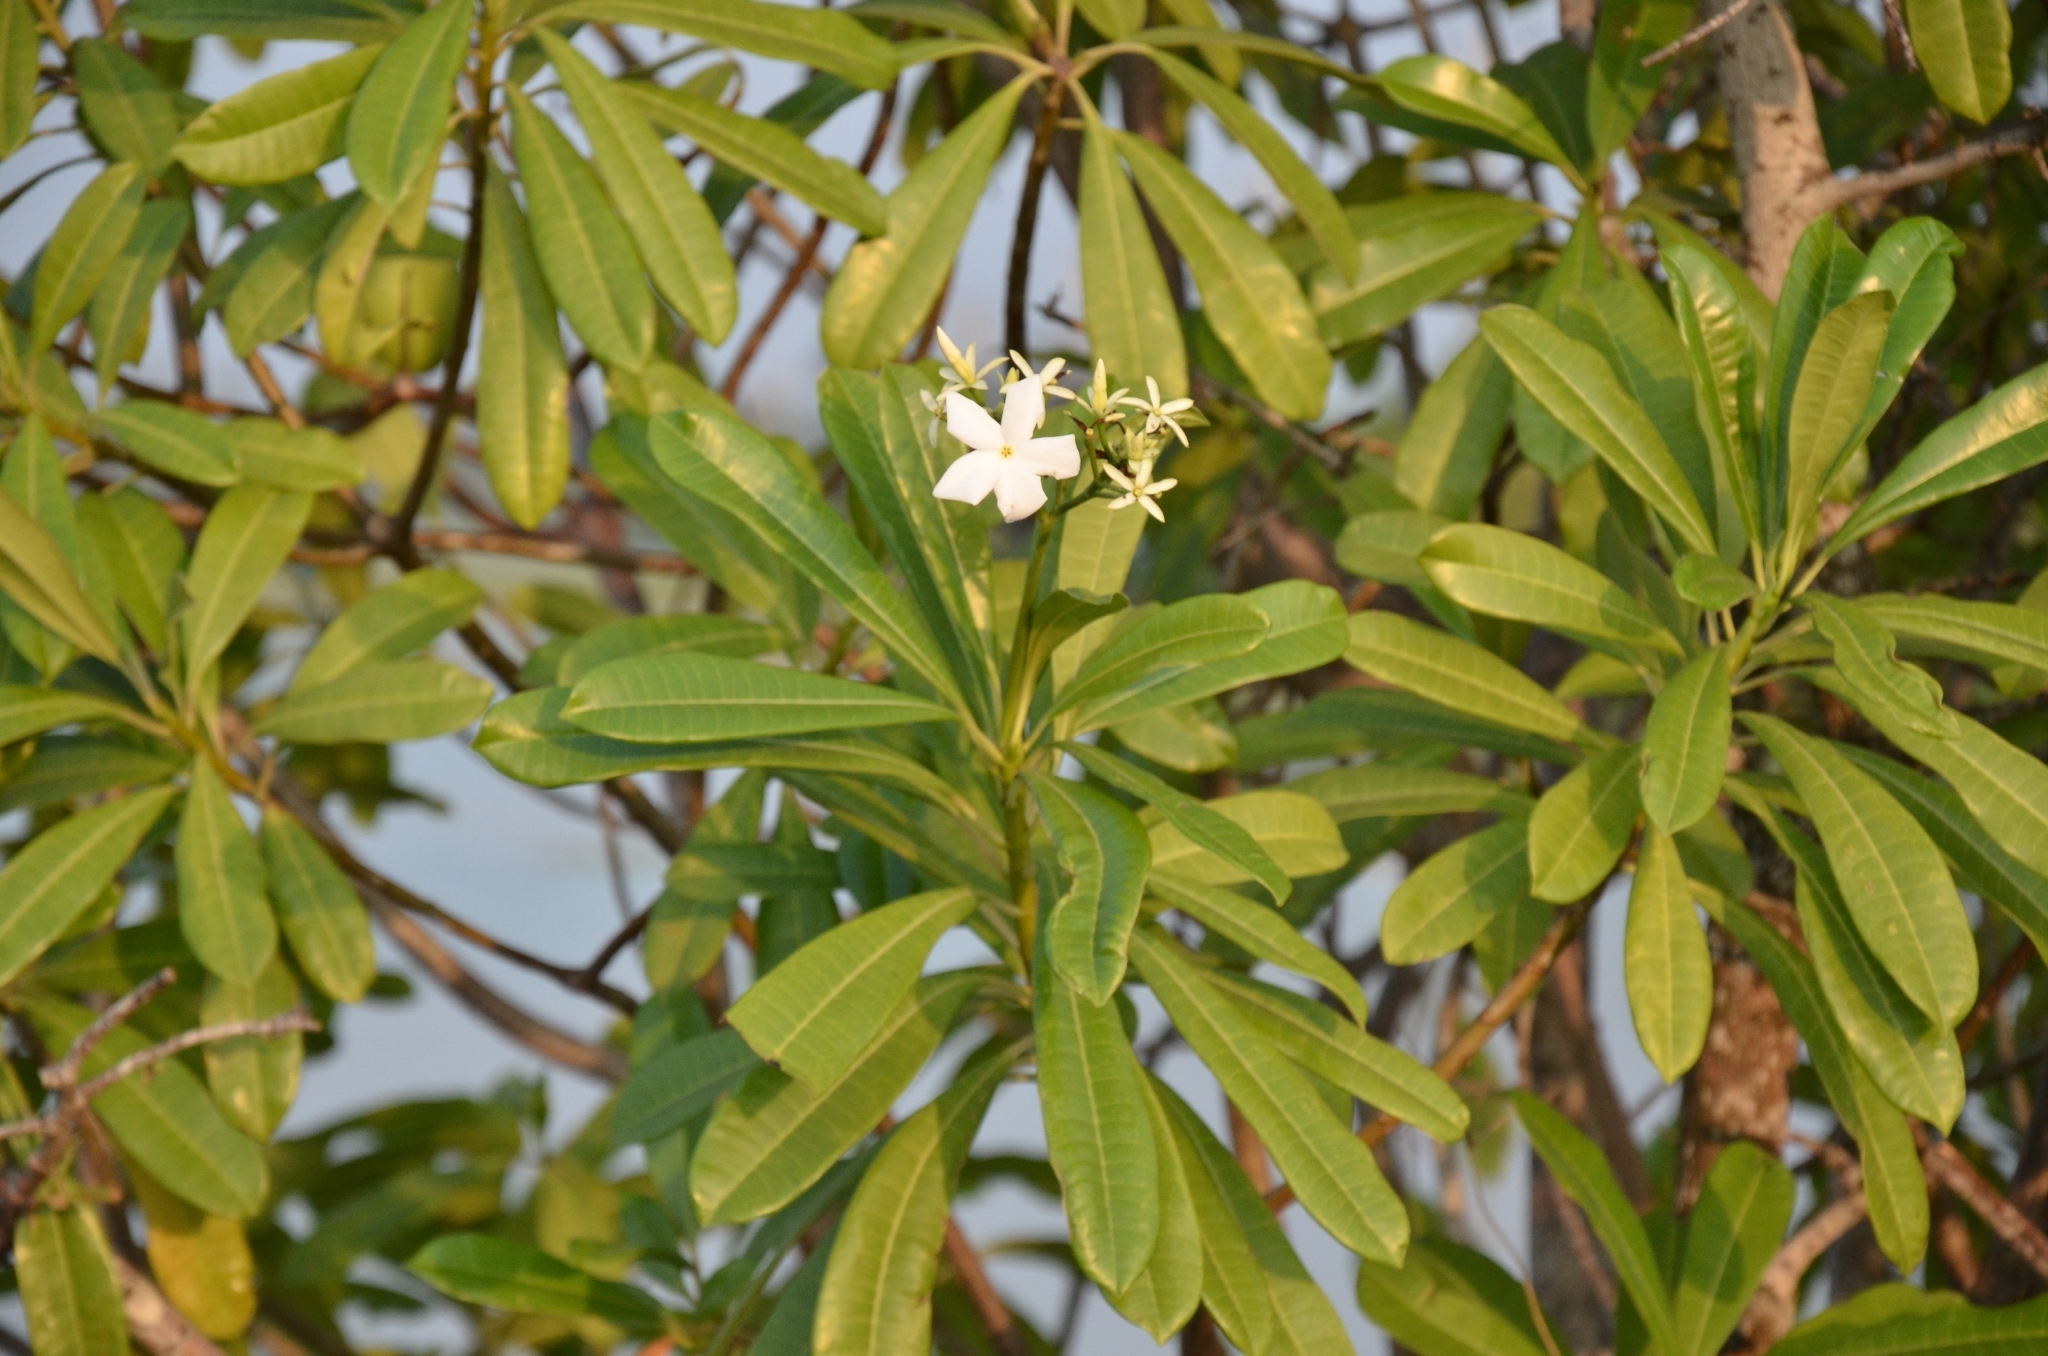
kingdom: Plantae
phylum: Tracheophyta
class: Magnoliopsida
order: Gentianales
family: Apocynaceae
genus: Cerbera
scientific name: Cerbera odollam
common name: Pong-pong
